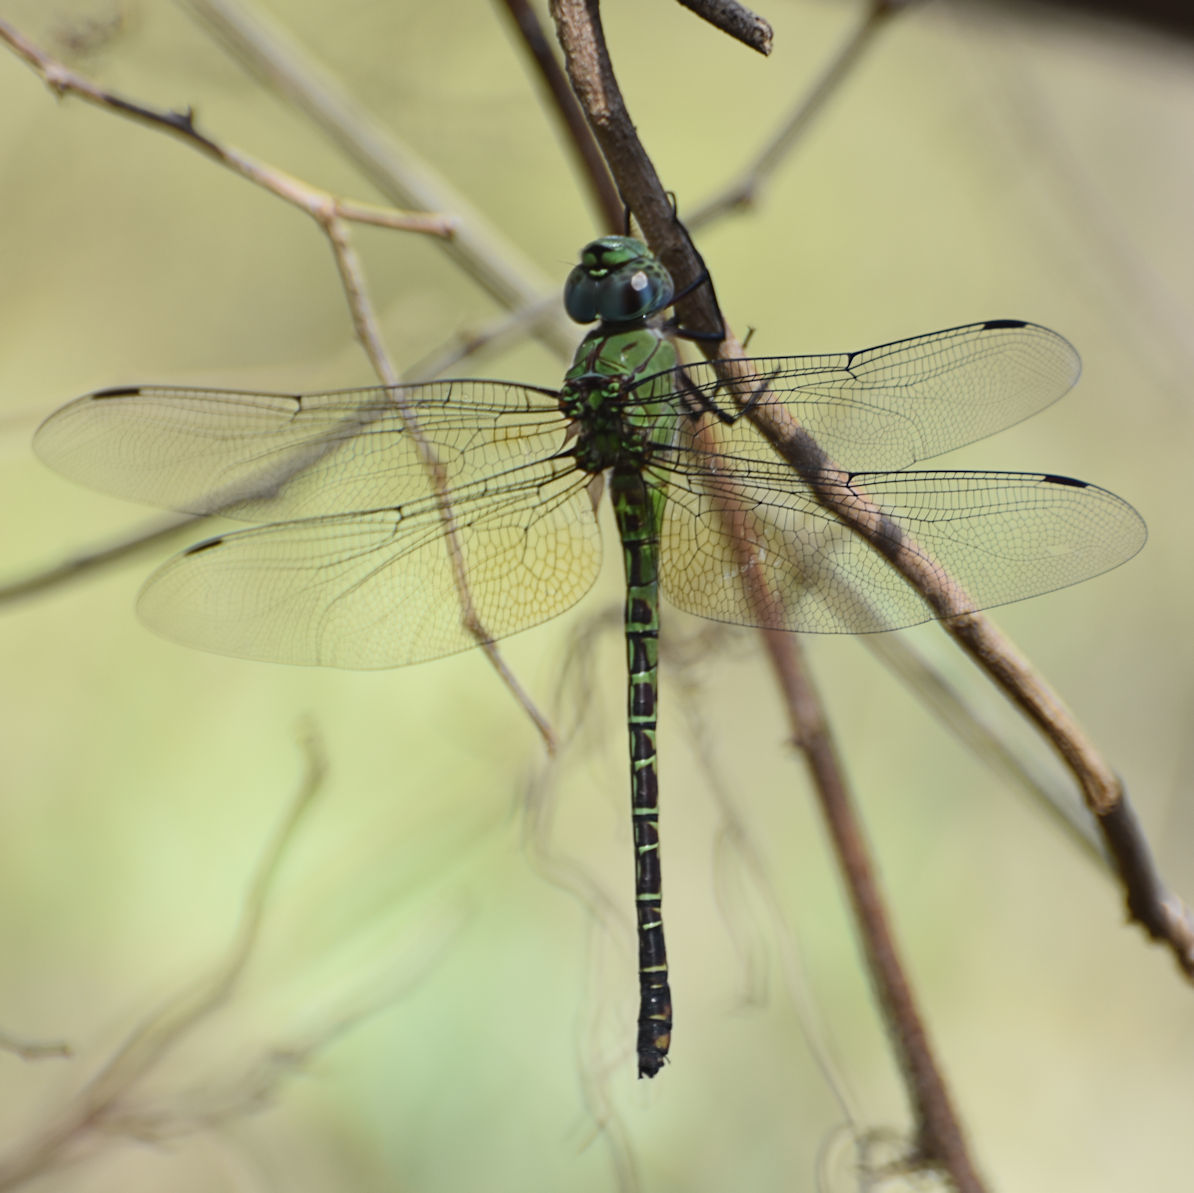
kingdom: Animalia
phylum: Arthropoda
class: Insecta
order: Odonata
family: Aeshnidae
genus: Coryphaeschna
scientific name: Coryphaeschna viriditas
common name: Mangrove darner
